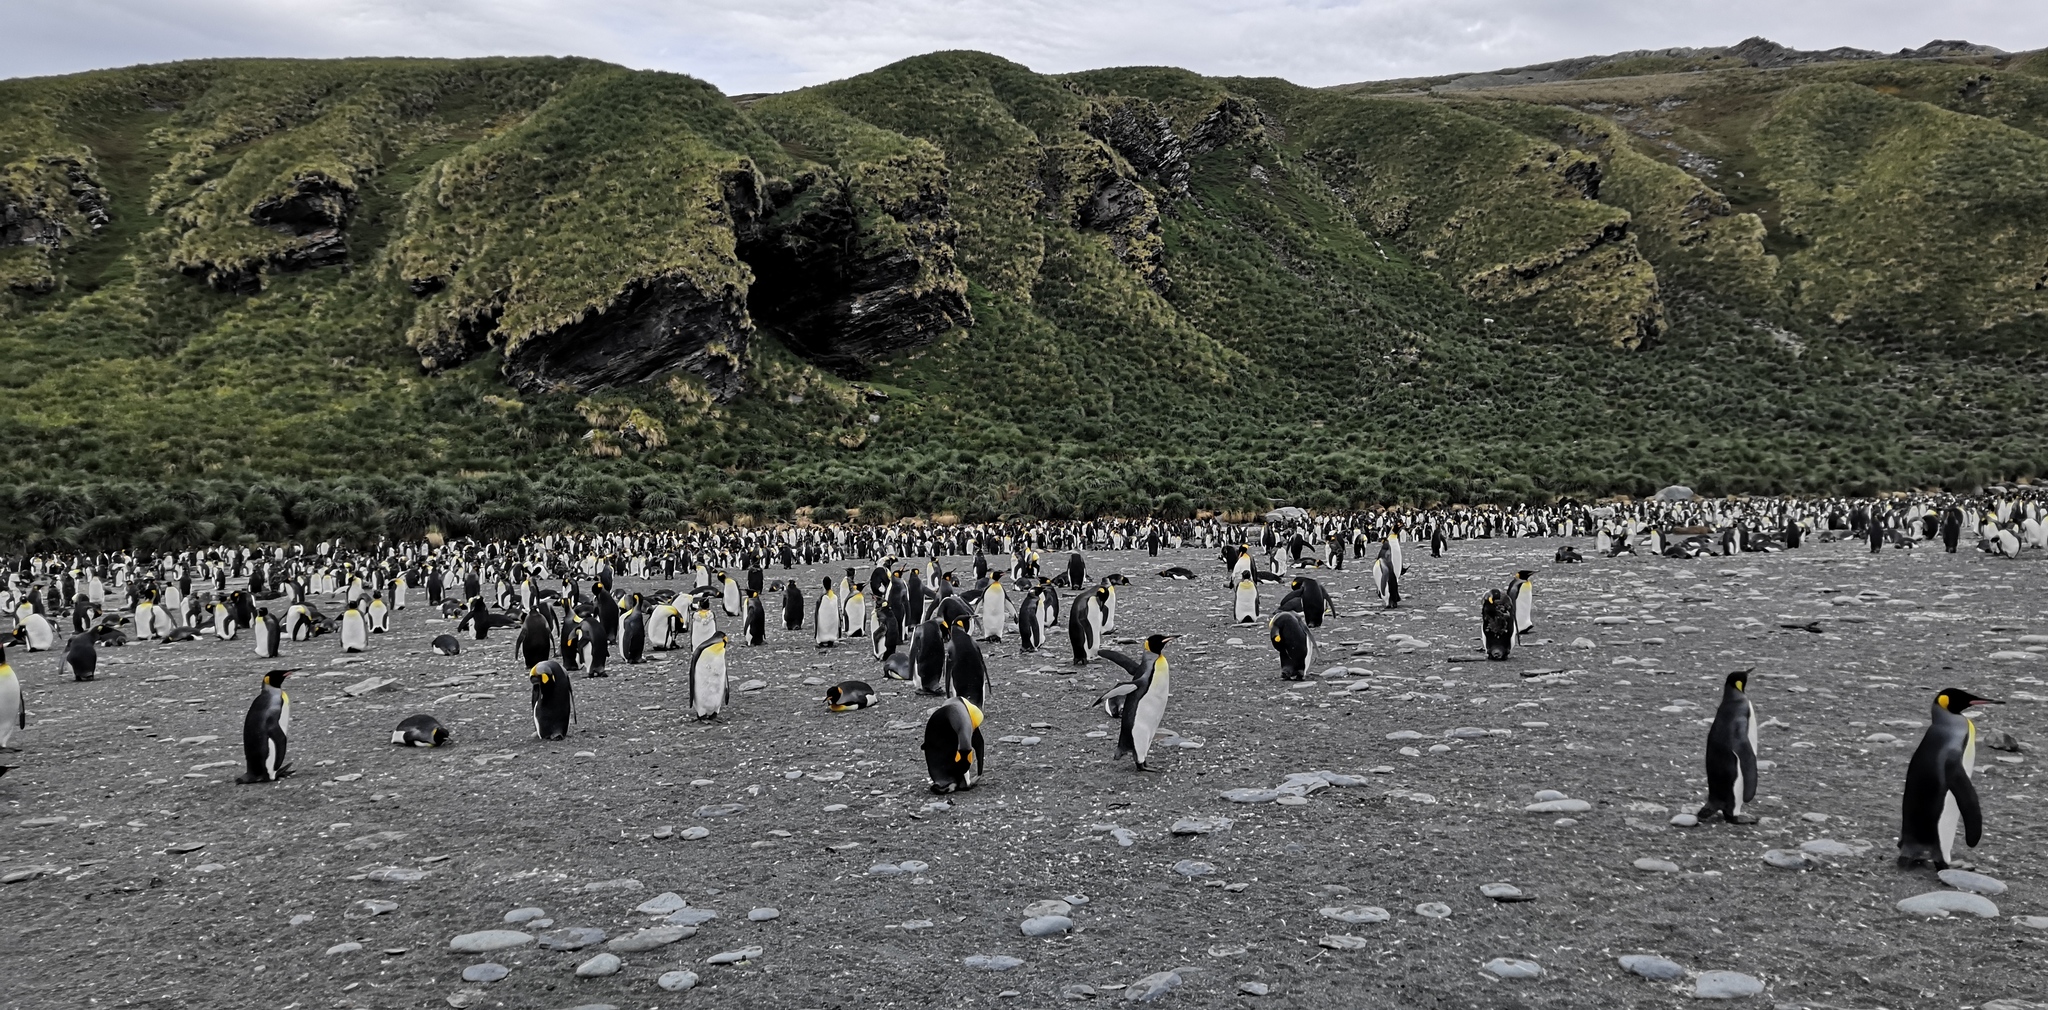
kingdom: Animalia
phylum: Chordata
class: Aves
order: Sphenisciformes
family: Spheniscidae
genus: Aptenodytes
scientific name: Aptenodytes patagonicus
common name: King penguin
